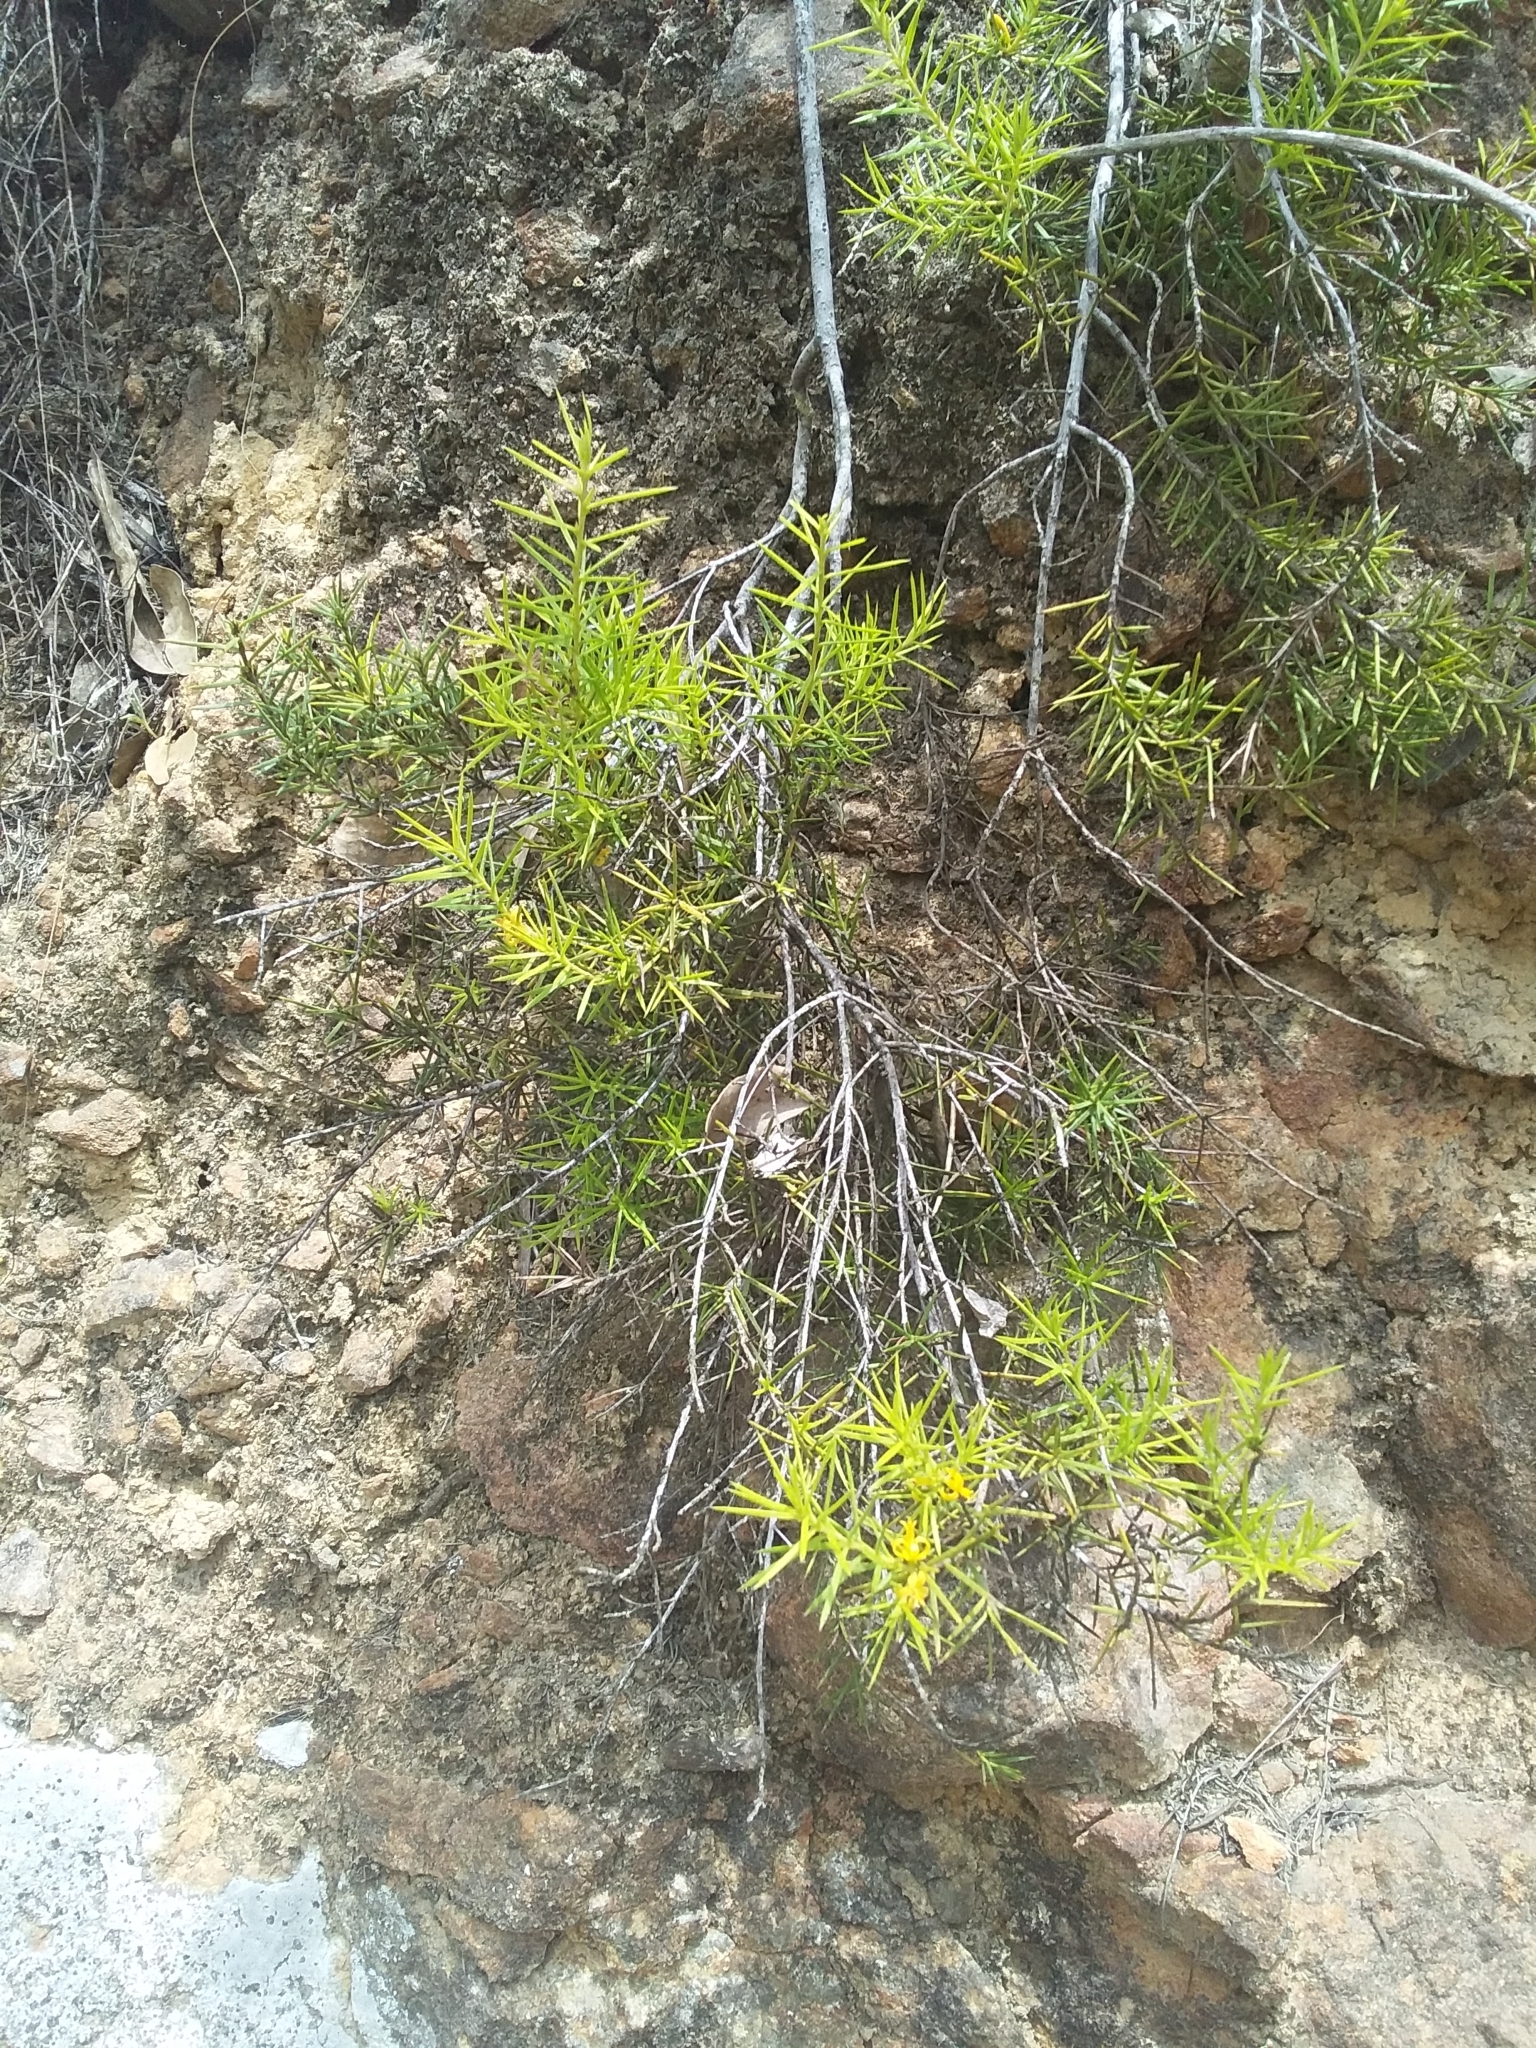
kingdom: Plantae
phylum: Tracheophyta
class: Magnoliopsida
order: Proteales
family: Proteaceae
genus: Persoonia
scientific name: Persoonia juniperina
